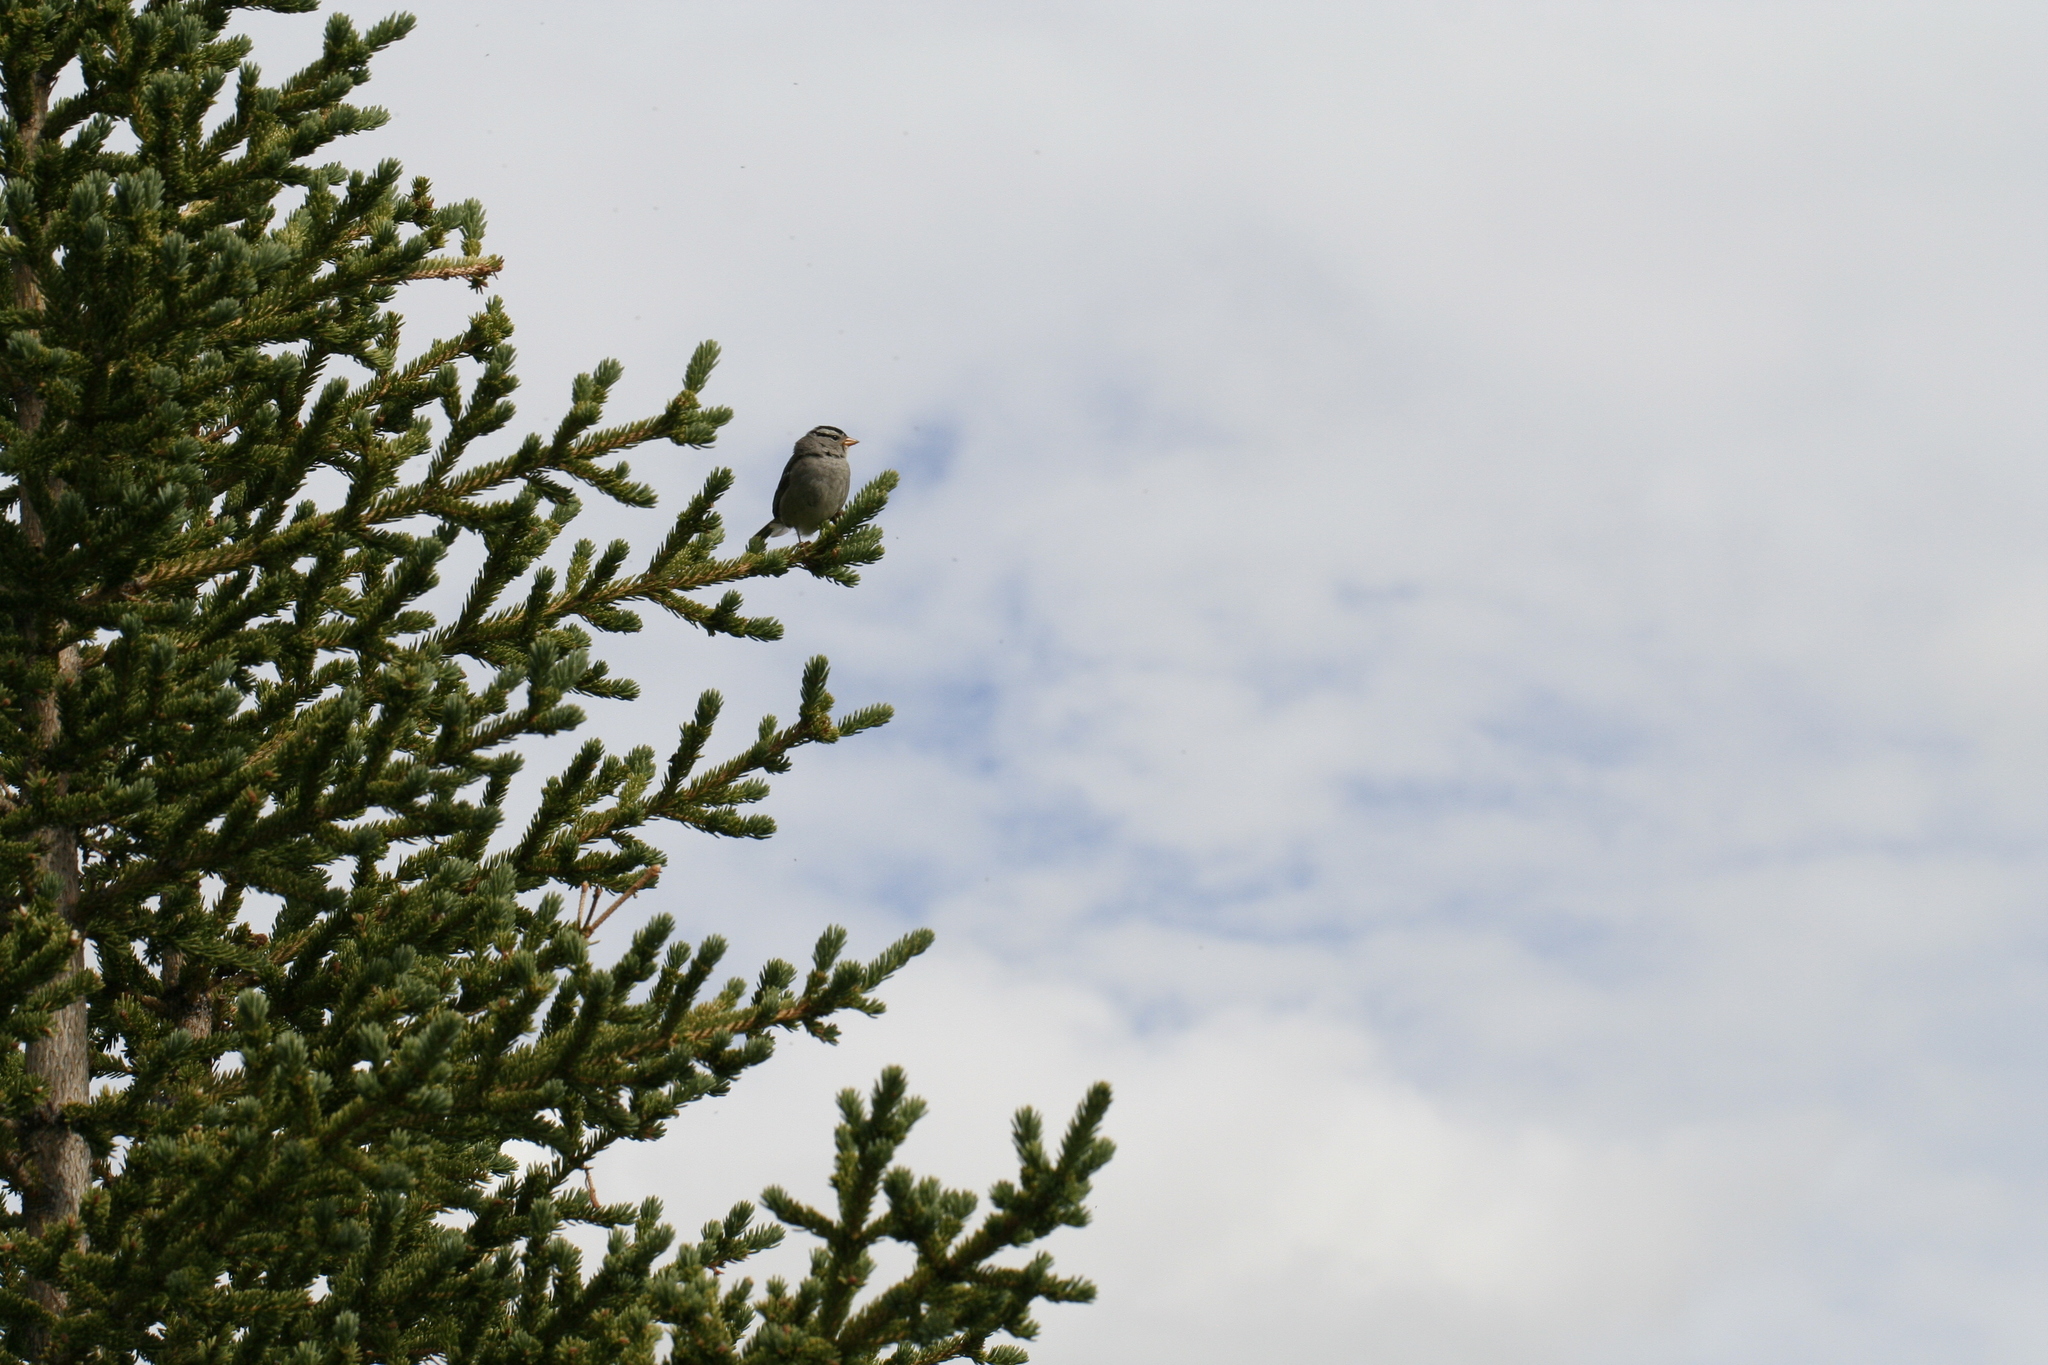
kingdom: Animalia
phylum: Chordata
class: Aves
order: Passeriformes
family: Passerellidae
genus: Zonotrichia
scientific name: Zonotrichia leucophrys
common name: White-crowned sparrow
